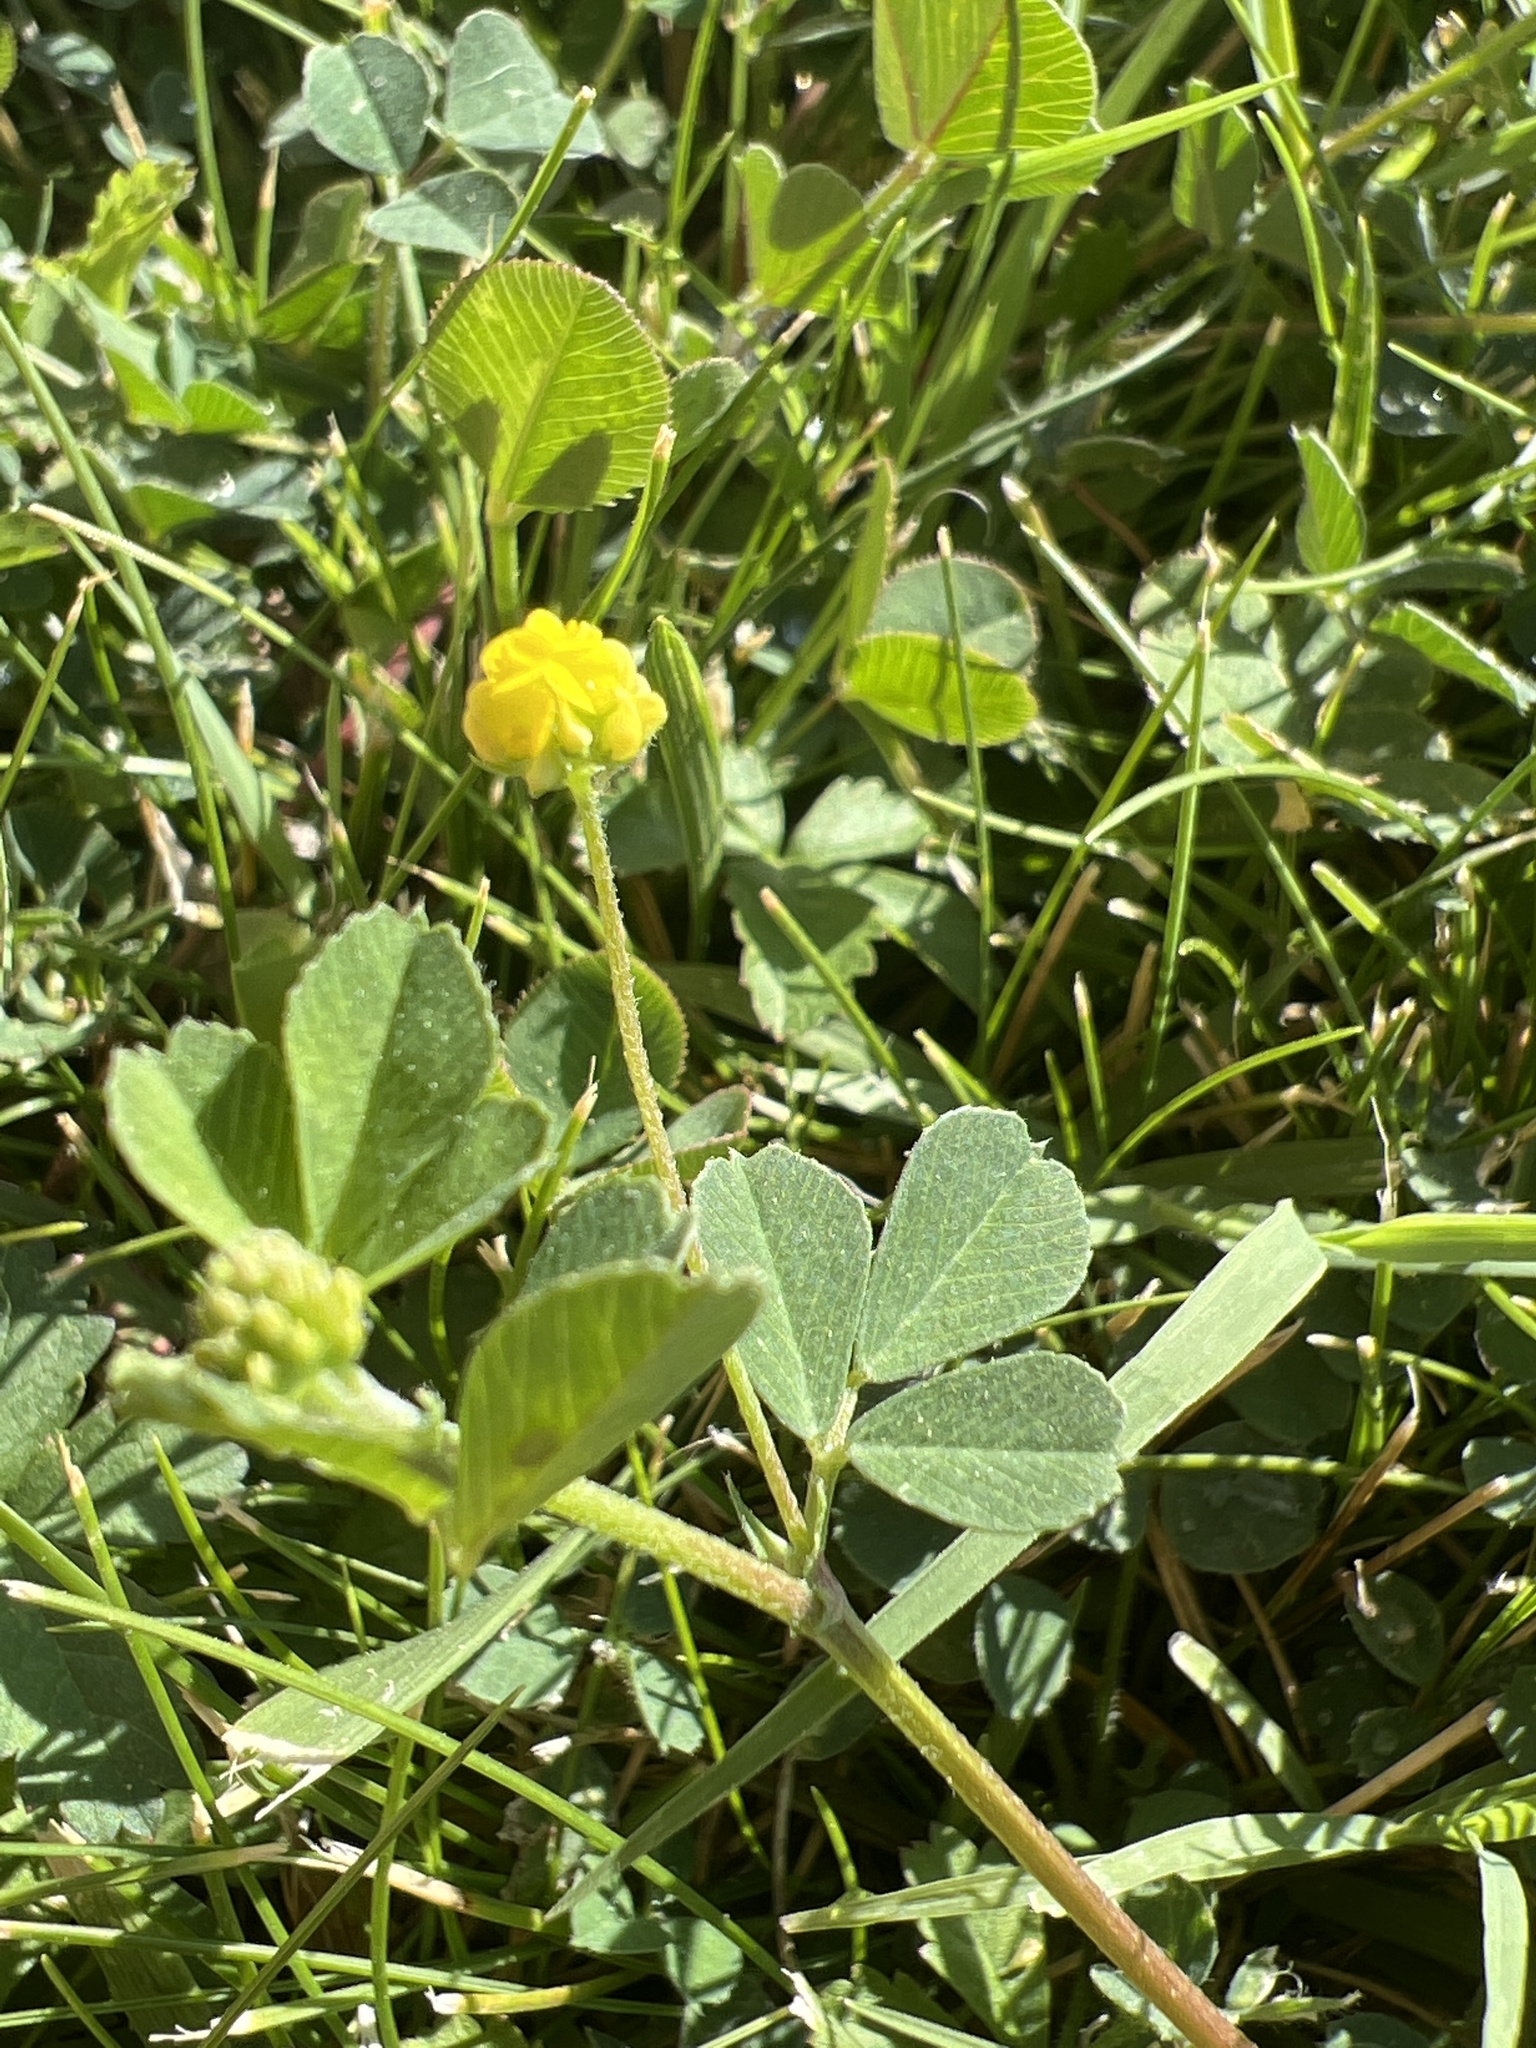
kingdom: Plantae
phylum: Tracheophyta
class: Magnoliopsida
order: Fabales
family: Fabaceae
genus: Medicago
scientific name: Medicago lupulina
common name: Black medick
